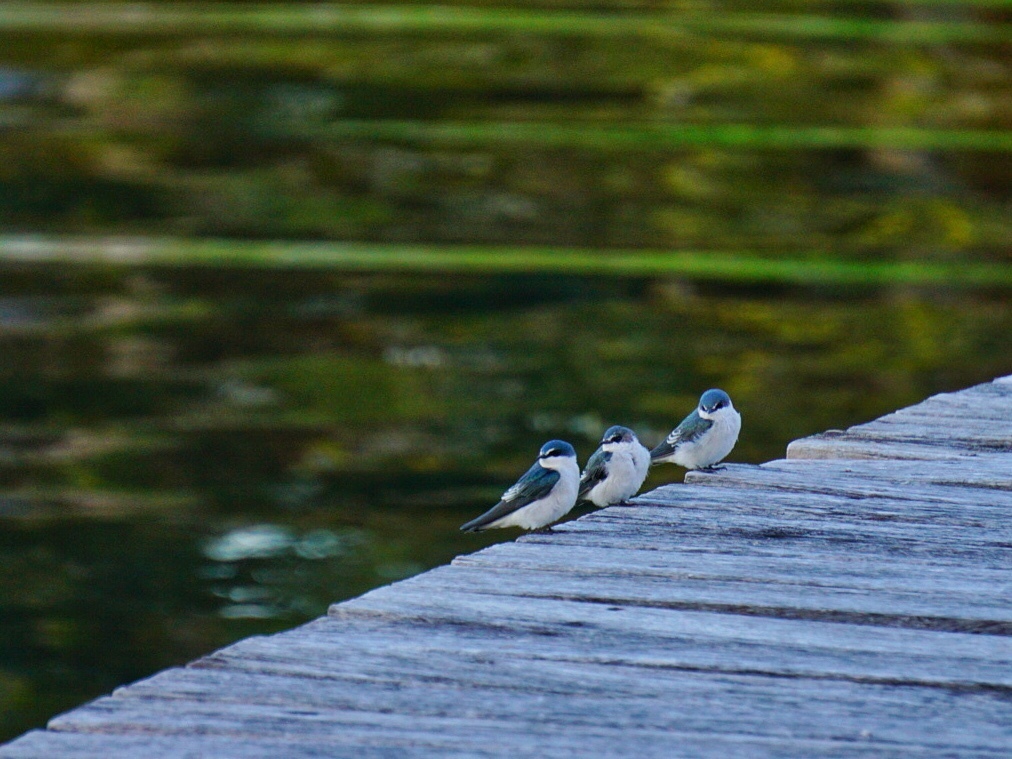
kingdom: Animalia
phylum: Chordata
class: Aves
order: Passeriformes
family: Hirundinidae
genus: Tachycineta
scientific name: Tachycineta albilinea
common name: Mangrove swallow
